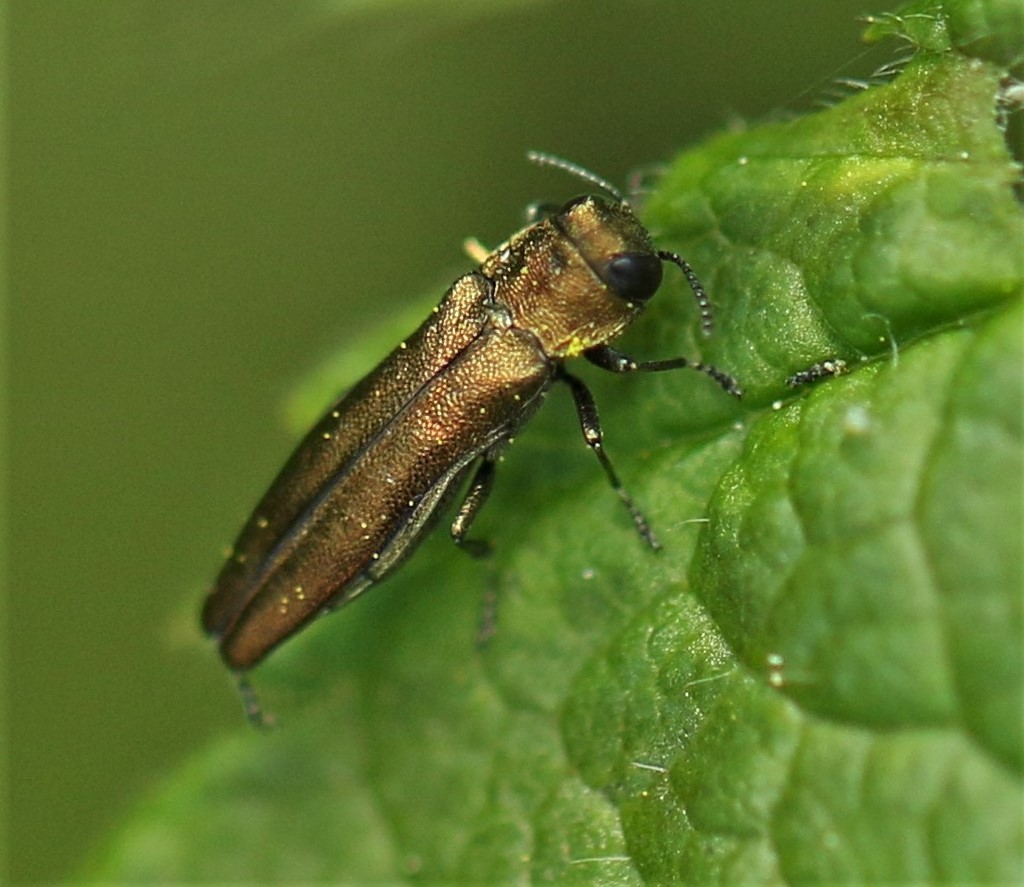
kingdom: Animalia
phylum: Arthropoda
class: Insecta
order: Coleoptera
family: Buprestidae
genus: Agrilus
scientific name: Agrilus cuprescens
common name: Rose stem girdler
